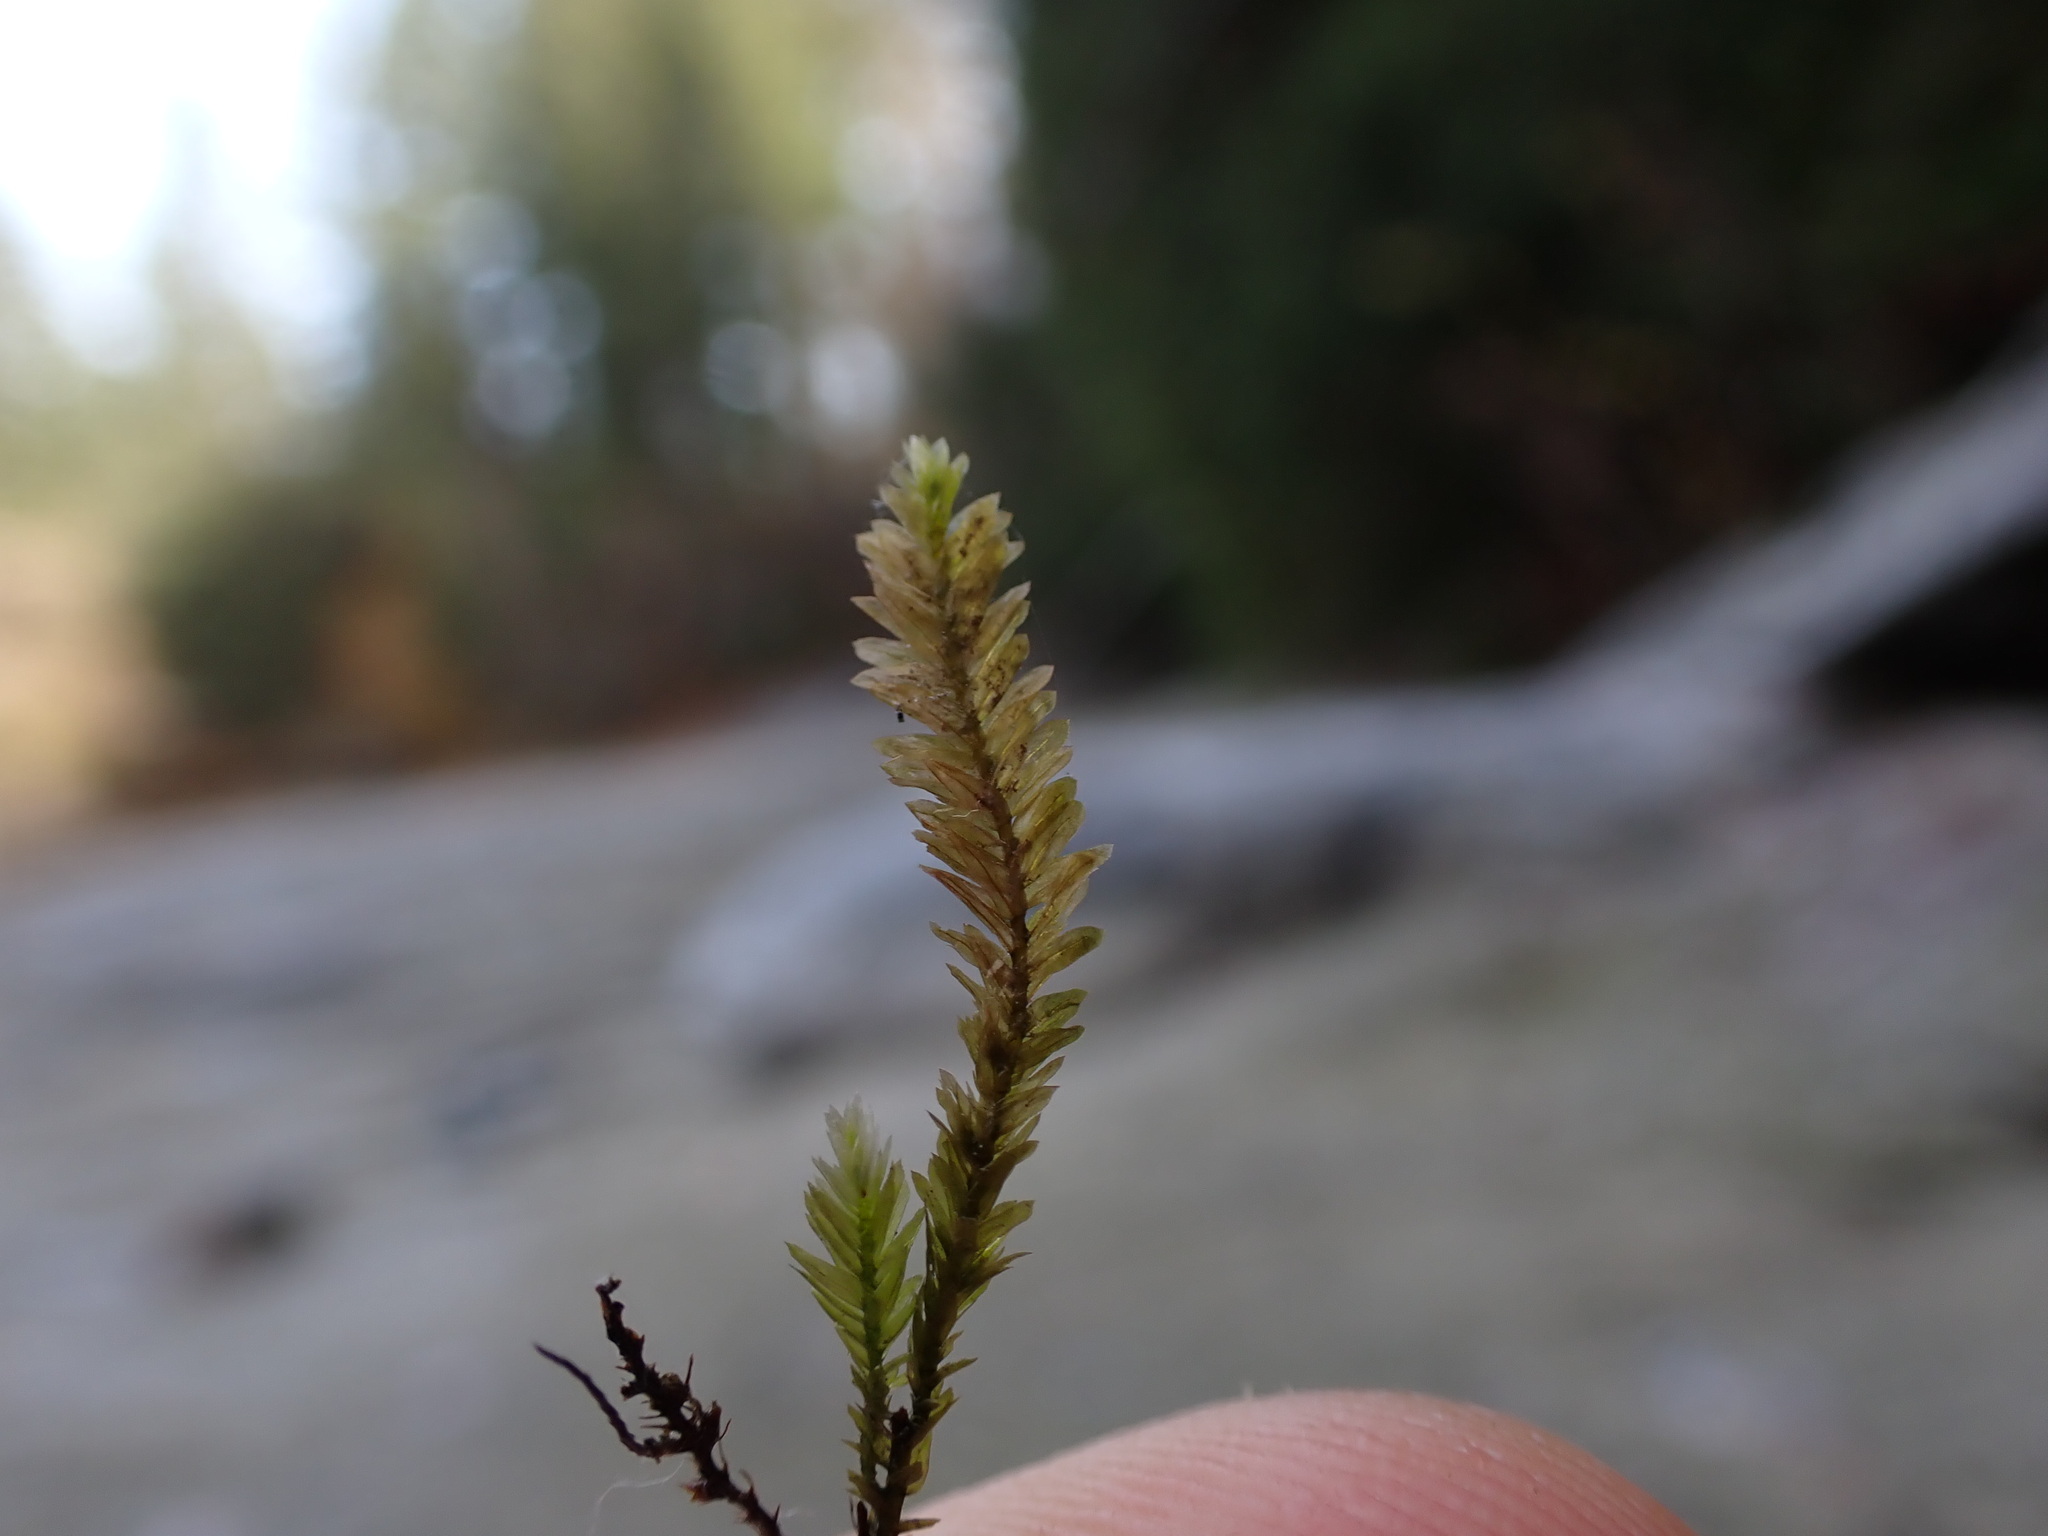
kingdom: Plantae
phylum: Bryophyta
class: Bryopsida
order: Hypnales
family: Neckeraceae
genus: Dannorrisia
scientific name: Dannorrisia bigelovii
